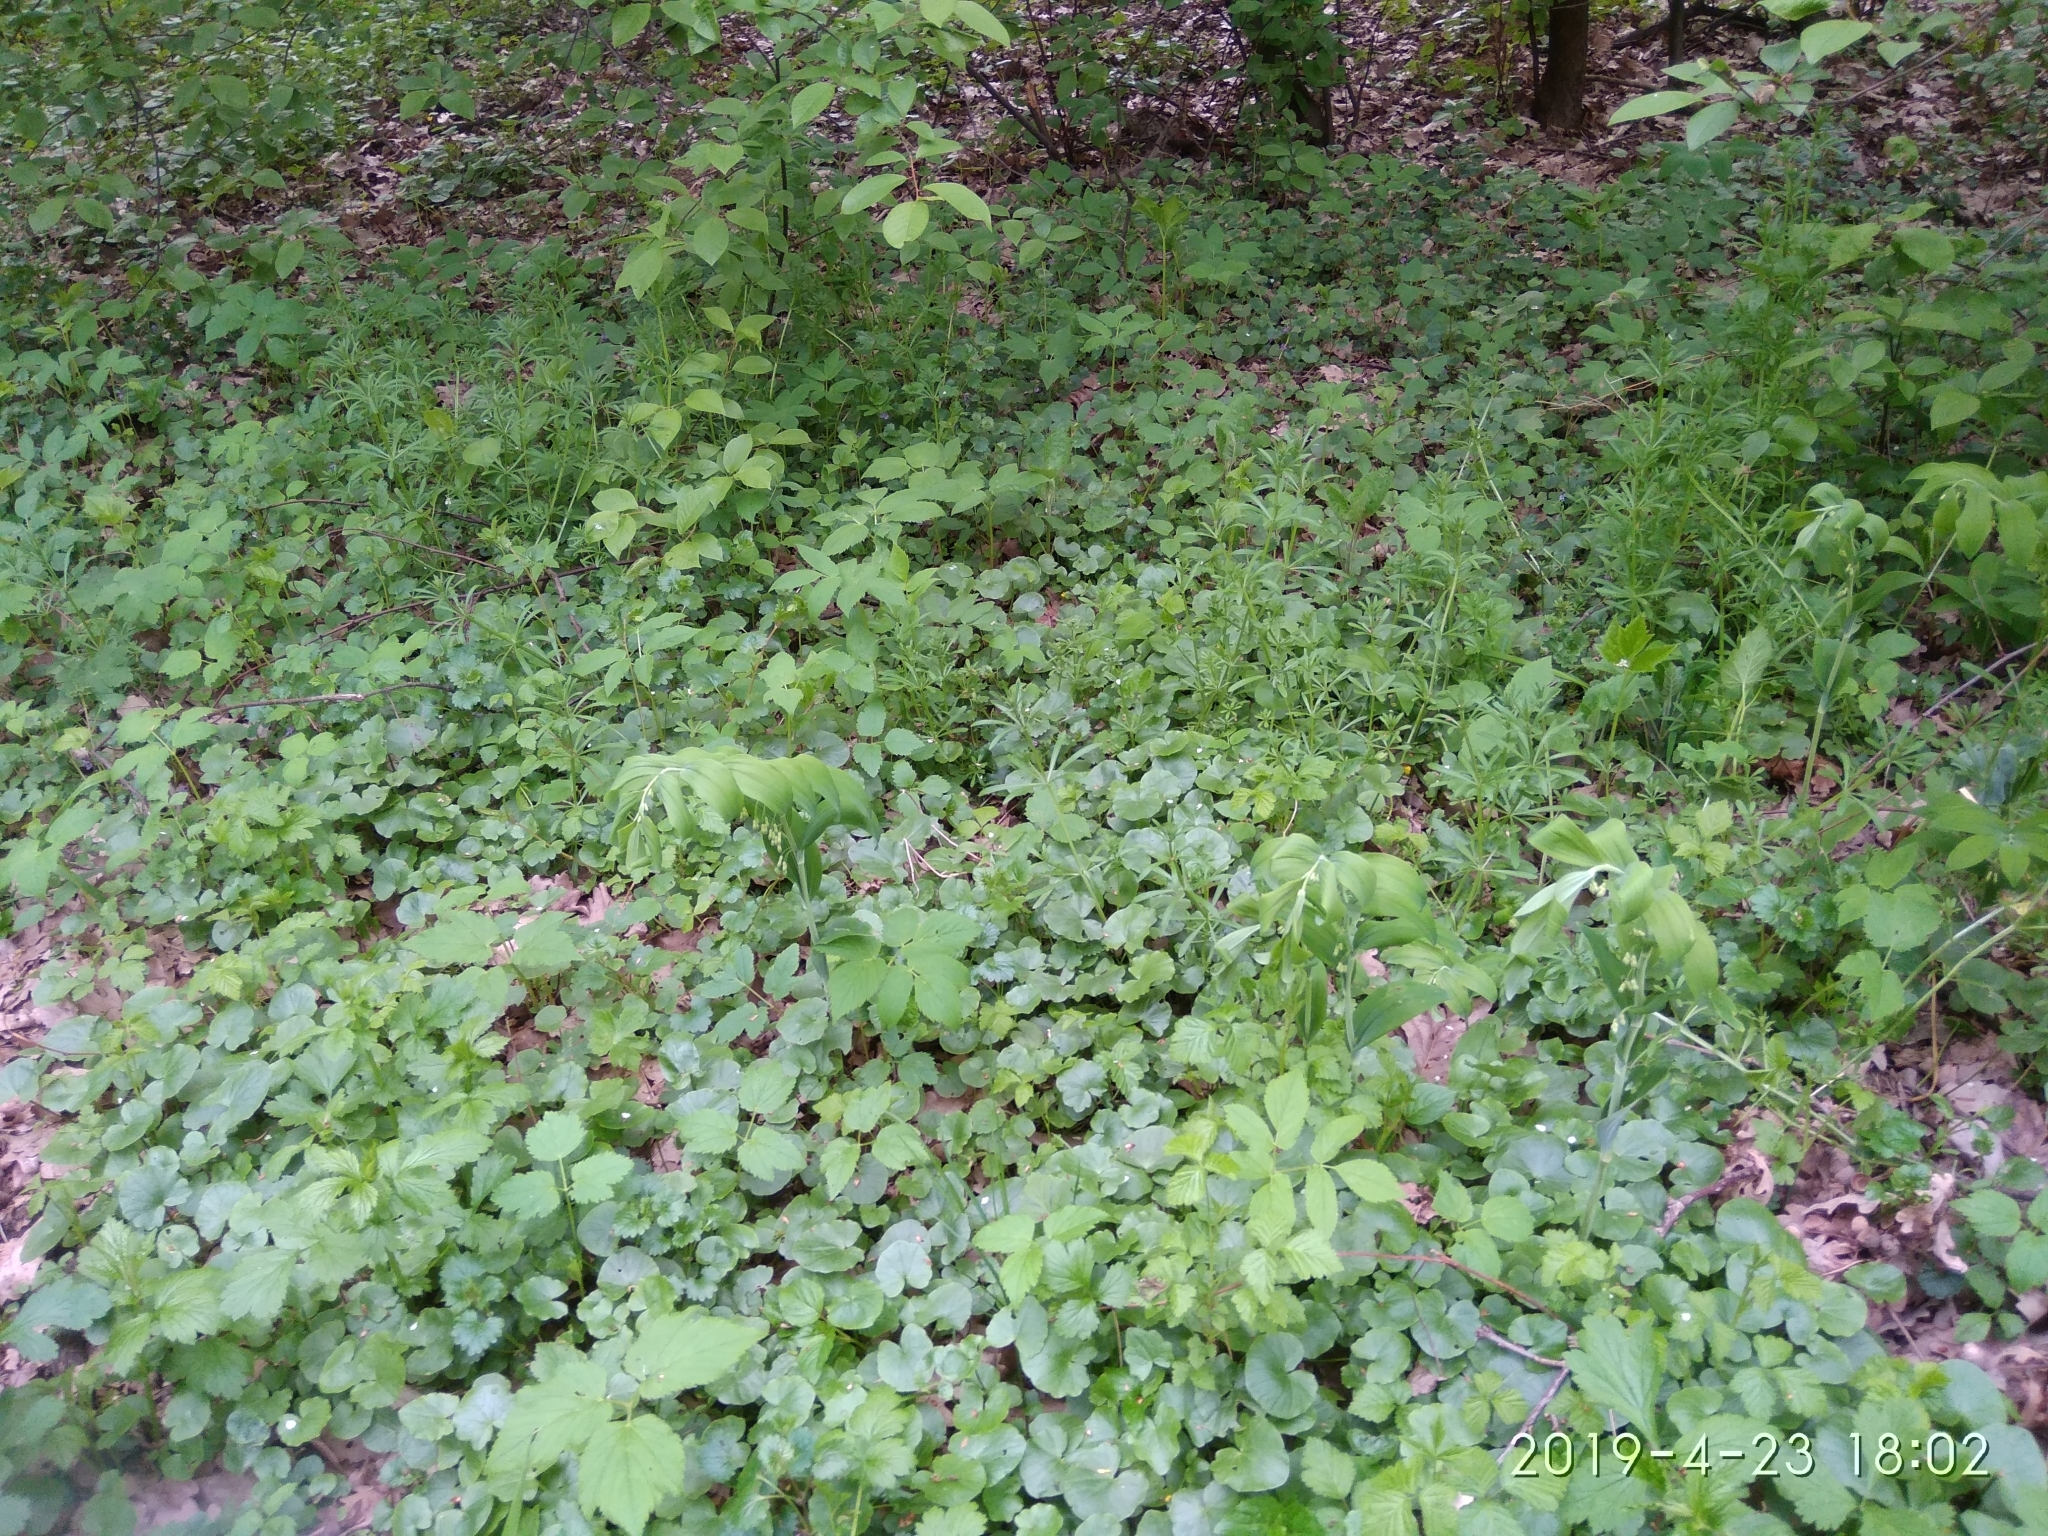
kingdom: Plantae
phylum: Tracheophyta
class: Liliopsida
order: Asparagales
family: Asparagaceae
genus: Polygonatum
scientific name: Polygonatum multiflorum
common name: Solomon's-seal
